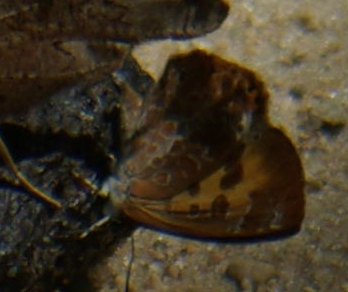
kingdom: Animalia
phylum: Arthropoda
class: Insecta
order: Lepidoptera
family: Lycaenidae
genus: Feniseca
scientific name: Feniseca tarquinius
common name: Harvester
